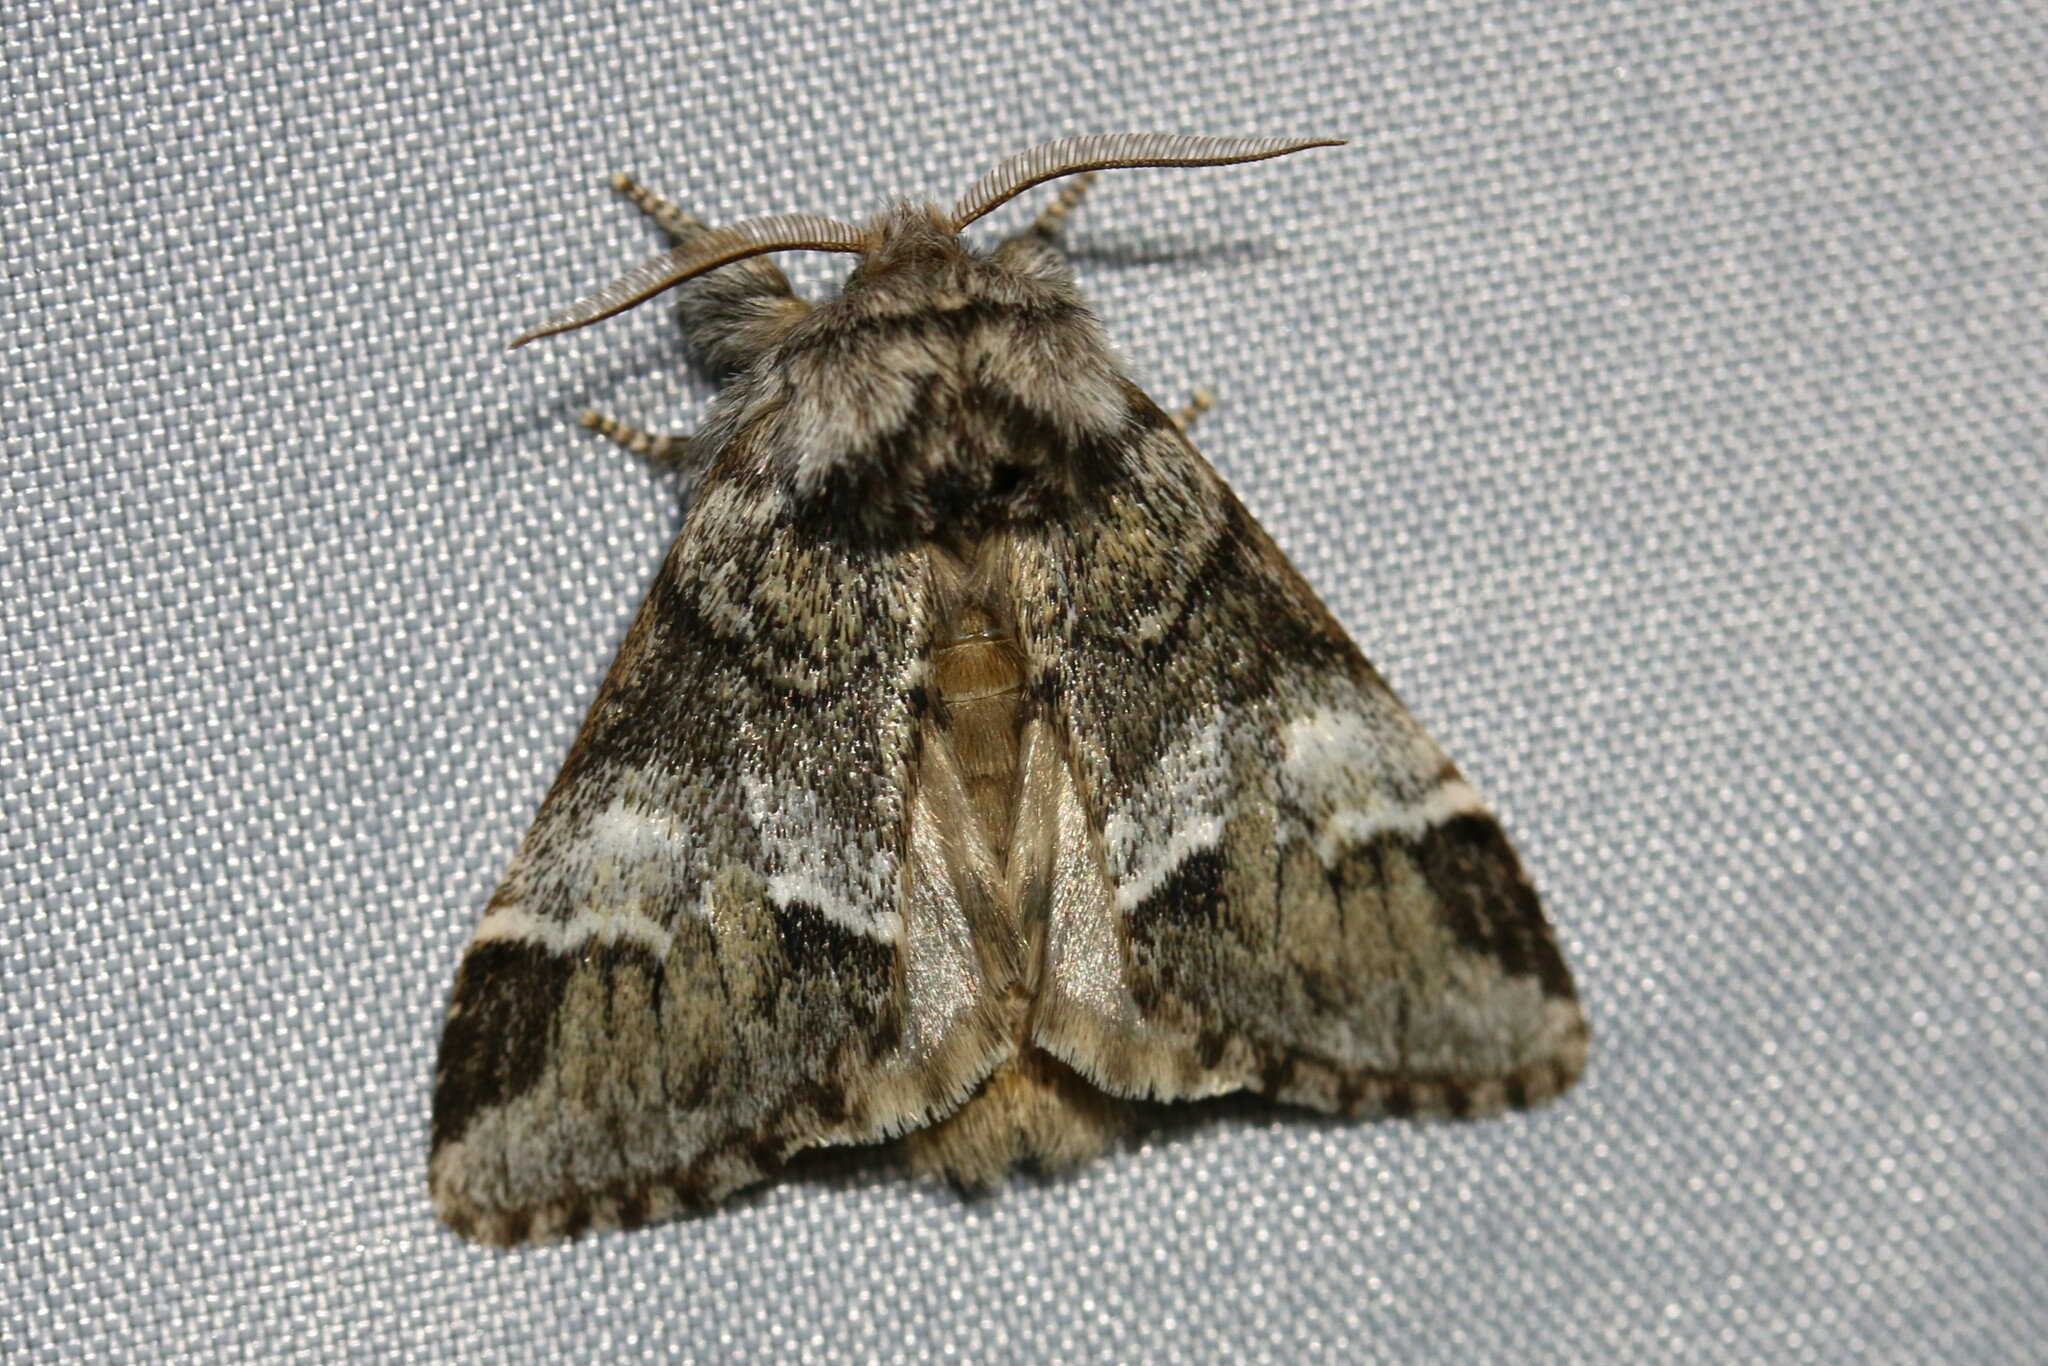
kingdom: Animalia
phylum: Arthropoda
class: Insecta
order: Lepidoptera
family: Notodontidae
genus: Drymonia
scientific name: Drymonia dodonaea
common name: Marbled brown
